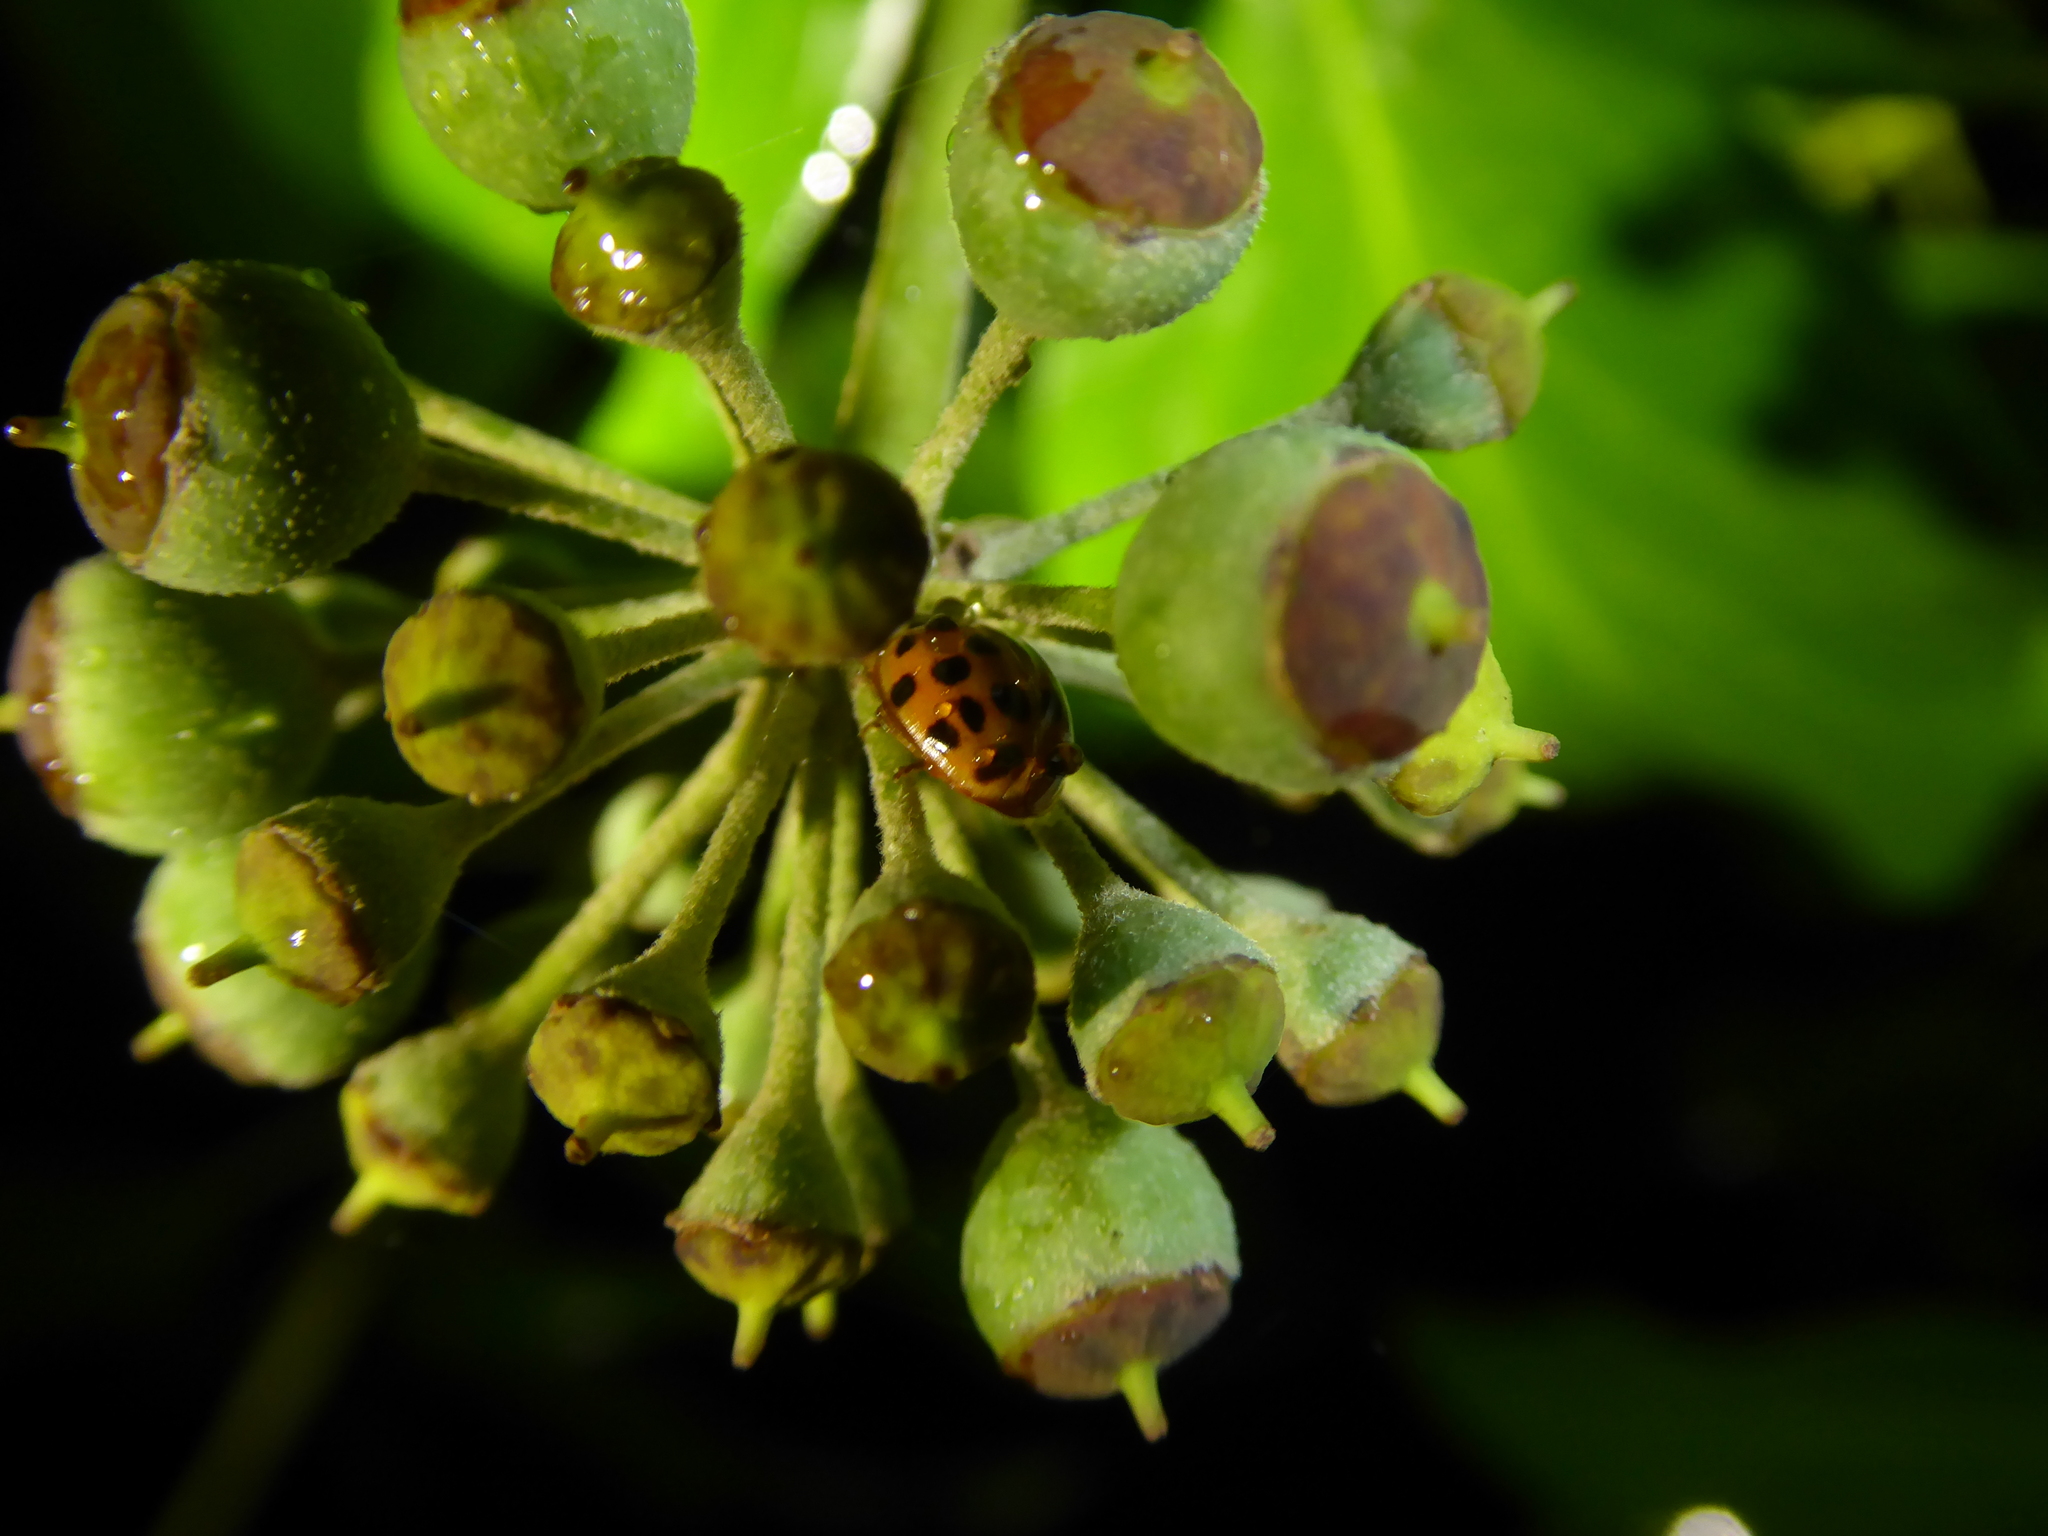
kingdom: Animalia
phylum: Arthropoda
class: Insecta
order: Coleoptera
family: Coccinellidae
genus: Harmonia
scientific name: Harmonia axyridis
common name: Harlequin ladybird
